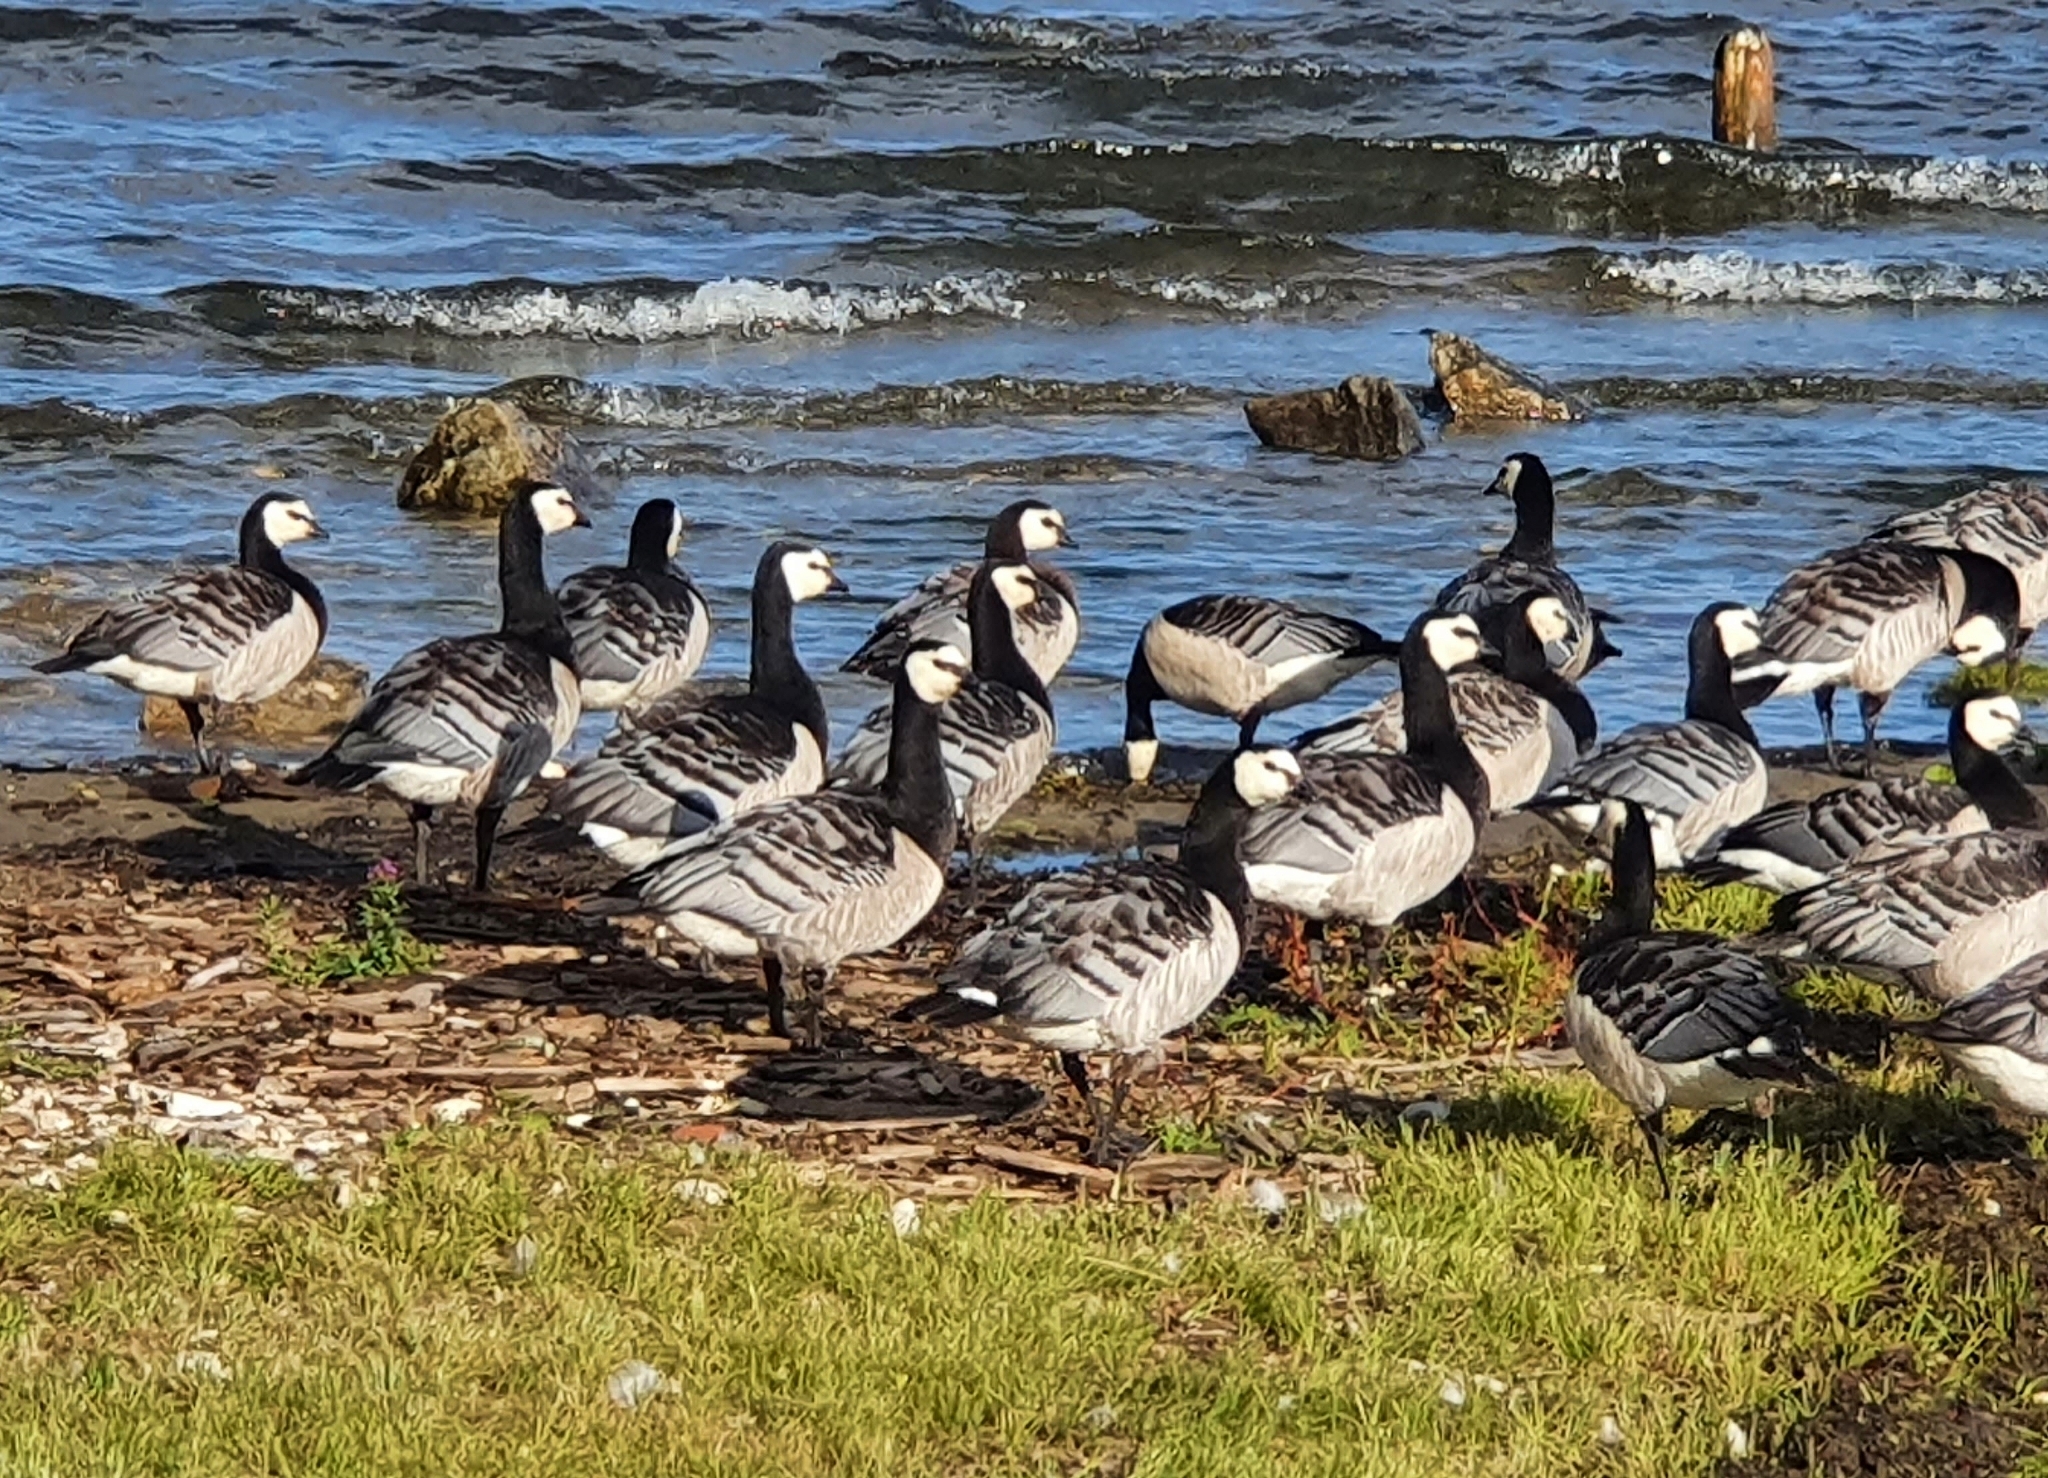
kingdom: Animalia
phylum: Chordata
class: Aves
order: Anseriformes
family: Anatidae
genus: Branta
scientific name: Branta leucopsis
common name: Barnacle goose
